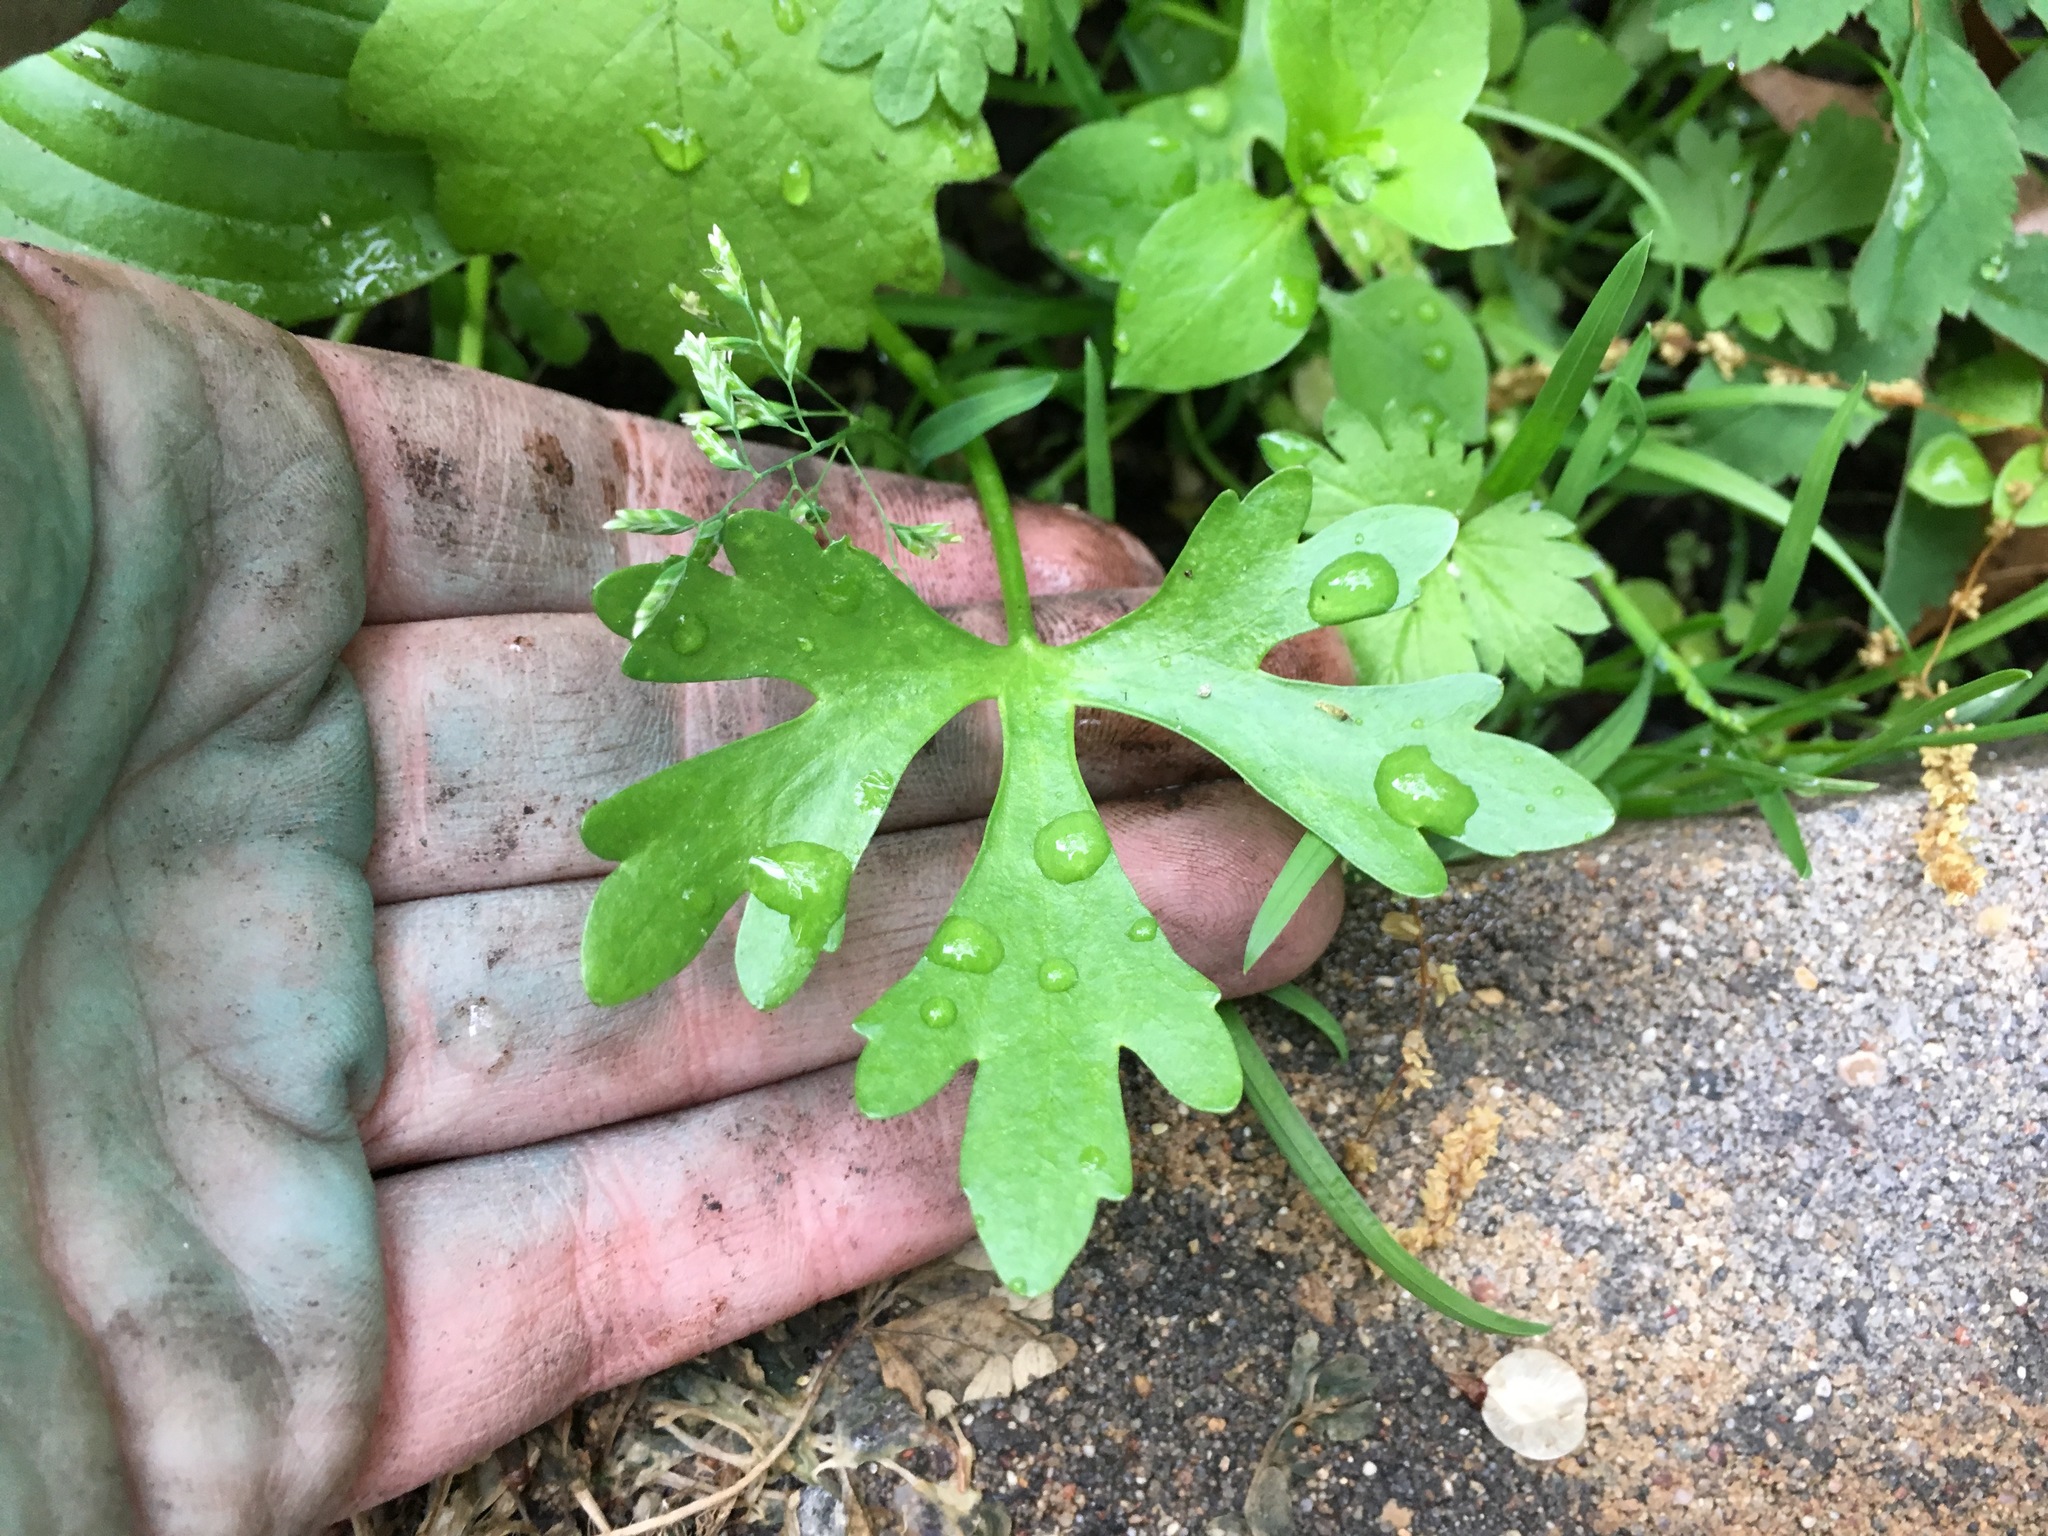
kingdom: Plantae
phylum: Tracheophyta
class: Magnoliopsida
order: Ranunculales
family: Ranunculaceae
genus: Ranunculus
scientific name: Ranunculus sceleratus
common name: Celery-leaved buttercup
